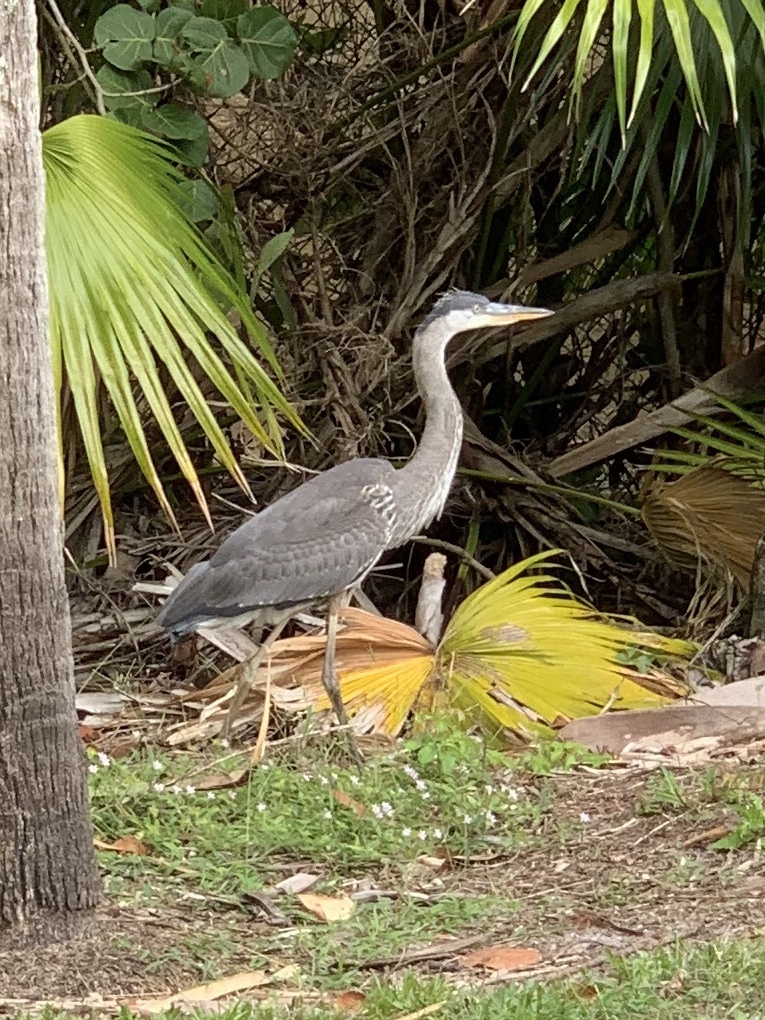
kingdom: Animalia
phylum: Chordata
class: Aves
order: Pelecaniformes
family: Ardeidae
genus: Ardea
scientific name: Ardea herodias
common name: Great blue heron
